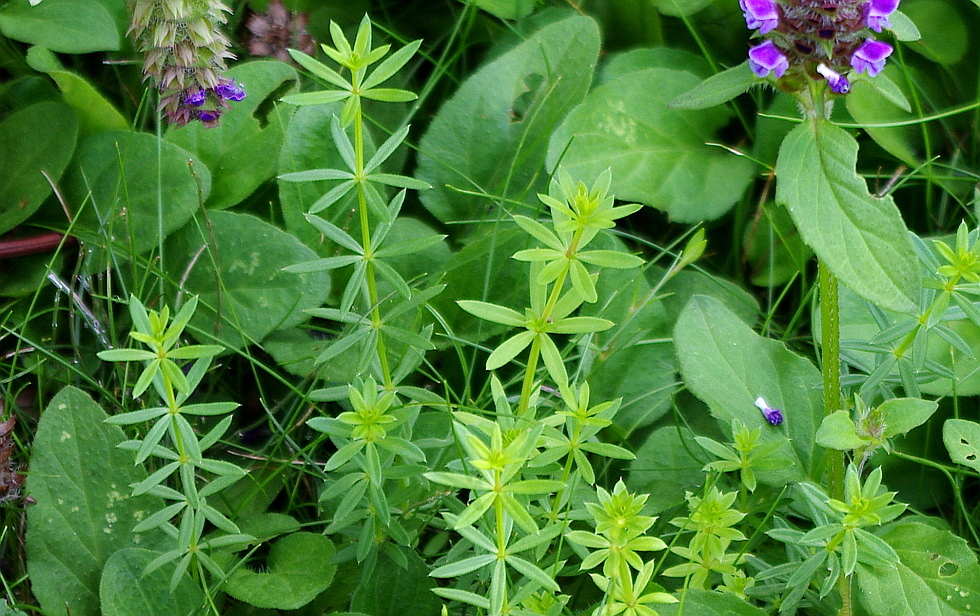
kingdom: Plantae
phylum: Tracheophyta
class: Magnoliopsida
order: Gentianales
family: Rubiaceae
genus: Galium
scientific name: Galium mollugo
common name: Hedge bedstraw
